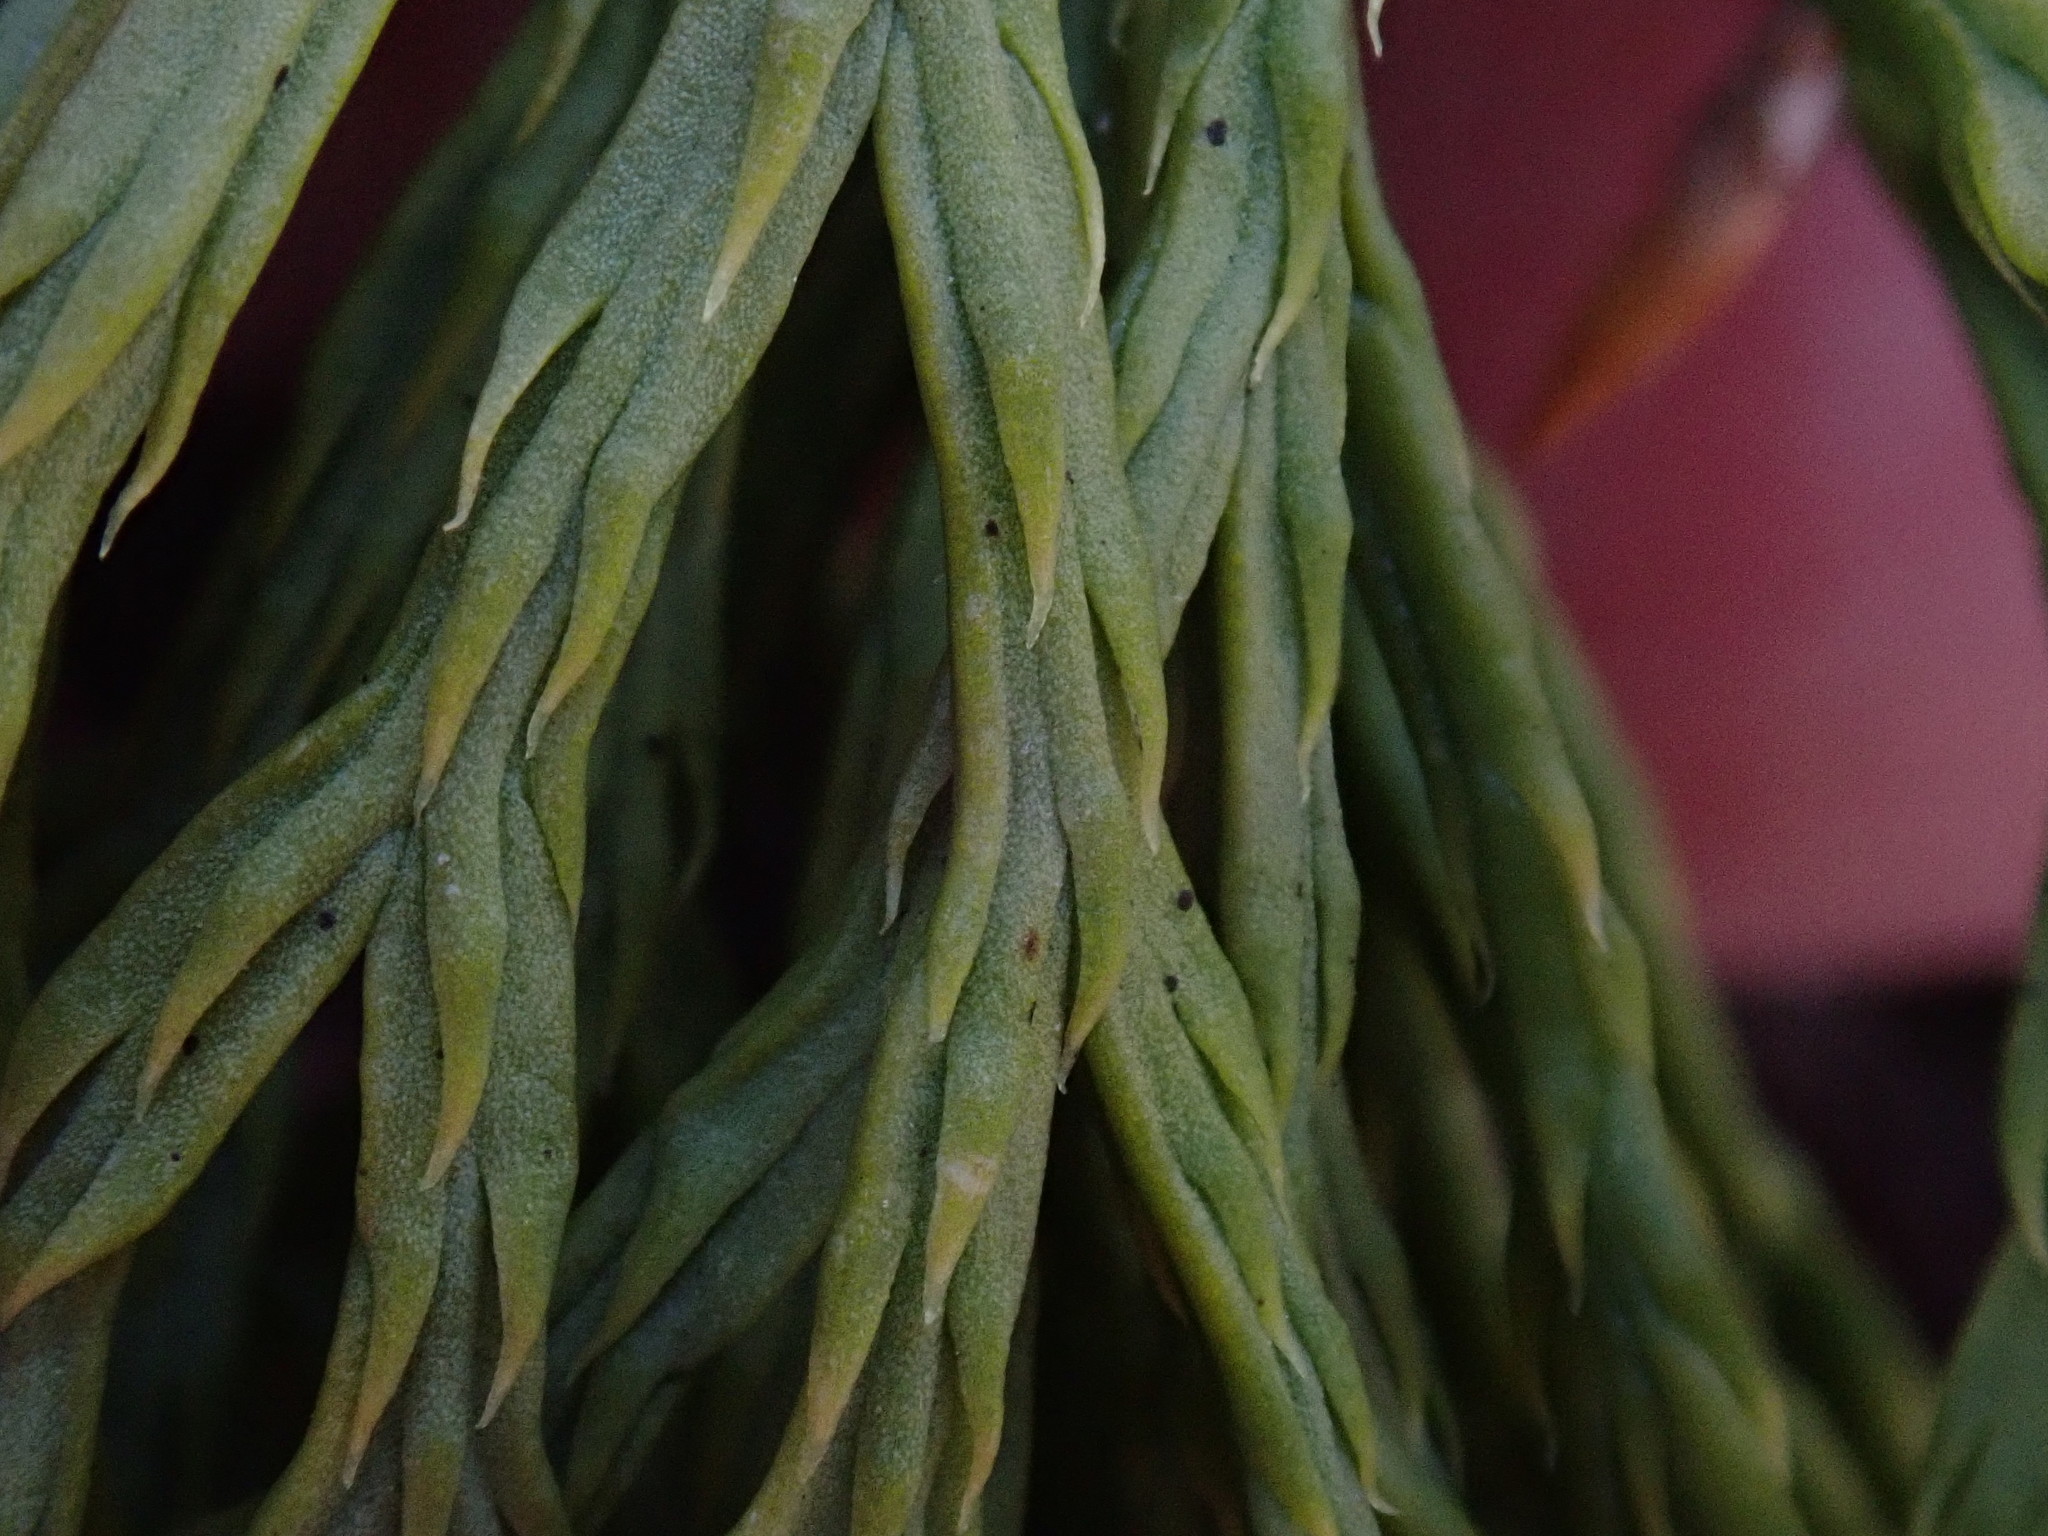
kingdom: Plantae
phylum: Tracheophyta
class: Lycopodiopsida
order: Lycopodiales
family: Lycopodiaceae
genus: Diphasiastrum
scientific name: Diphasiastrum tristachyum
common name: Blue ground-cedar
